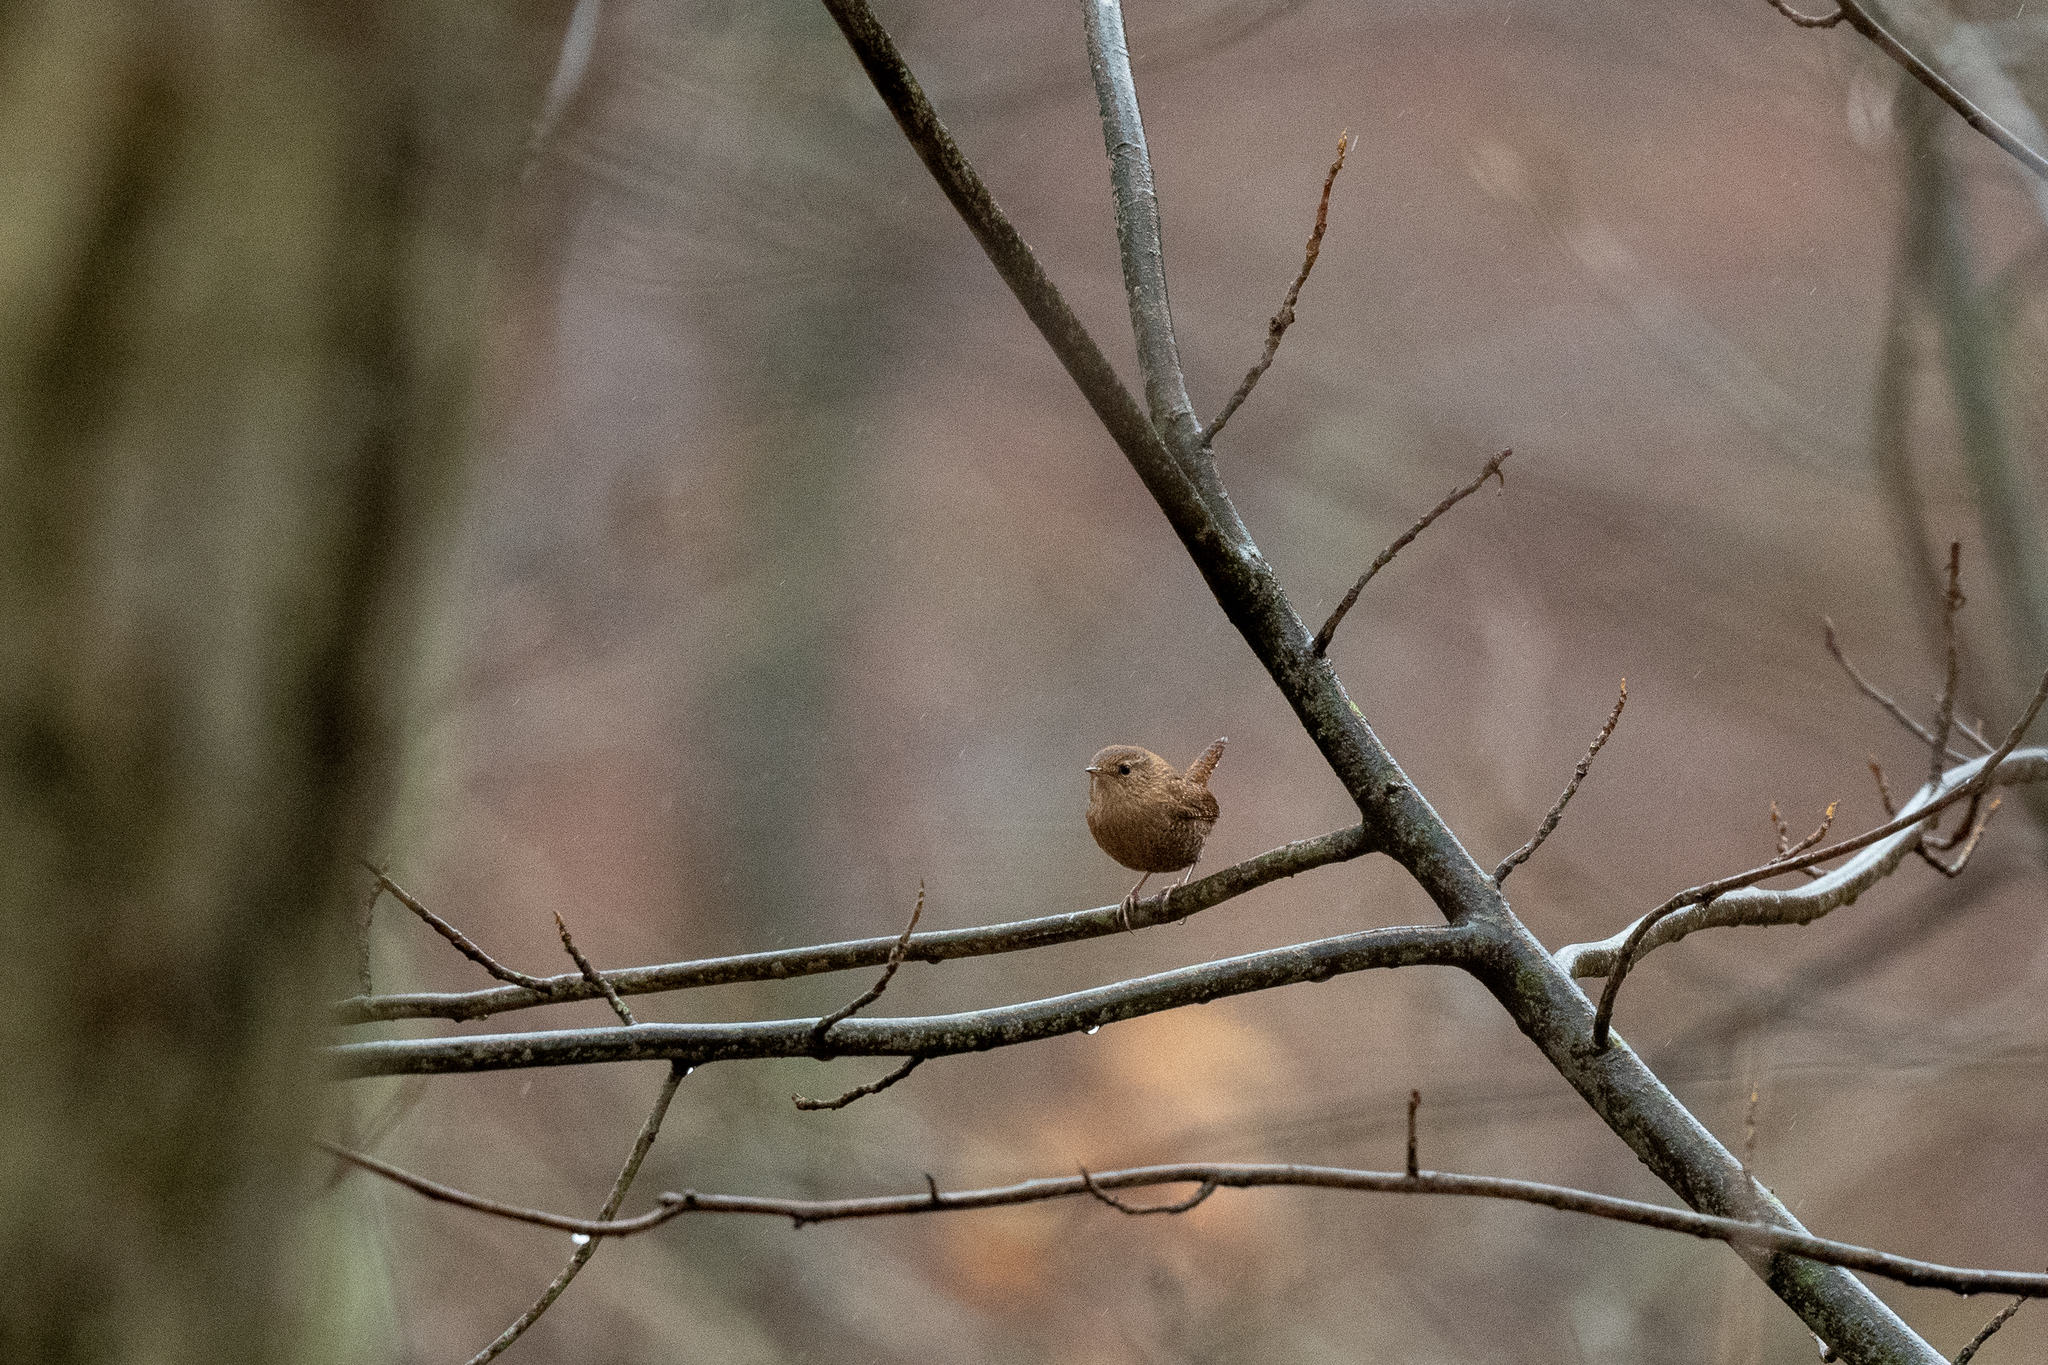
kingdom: Animalia
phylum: Chordata
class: Aves
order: Passeriformes
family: Troglodytidae
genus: Troglodytes
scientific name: Troglodytes hiemalis
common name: Winter wren
